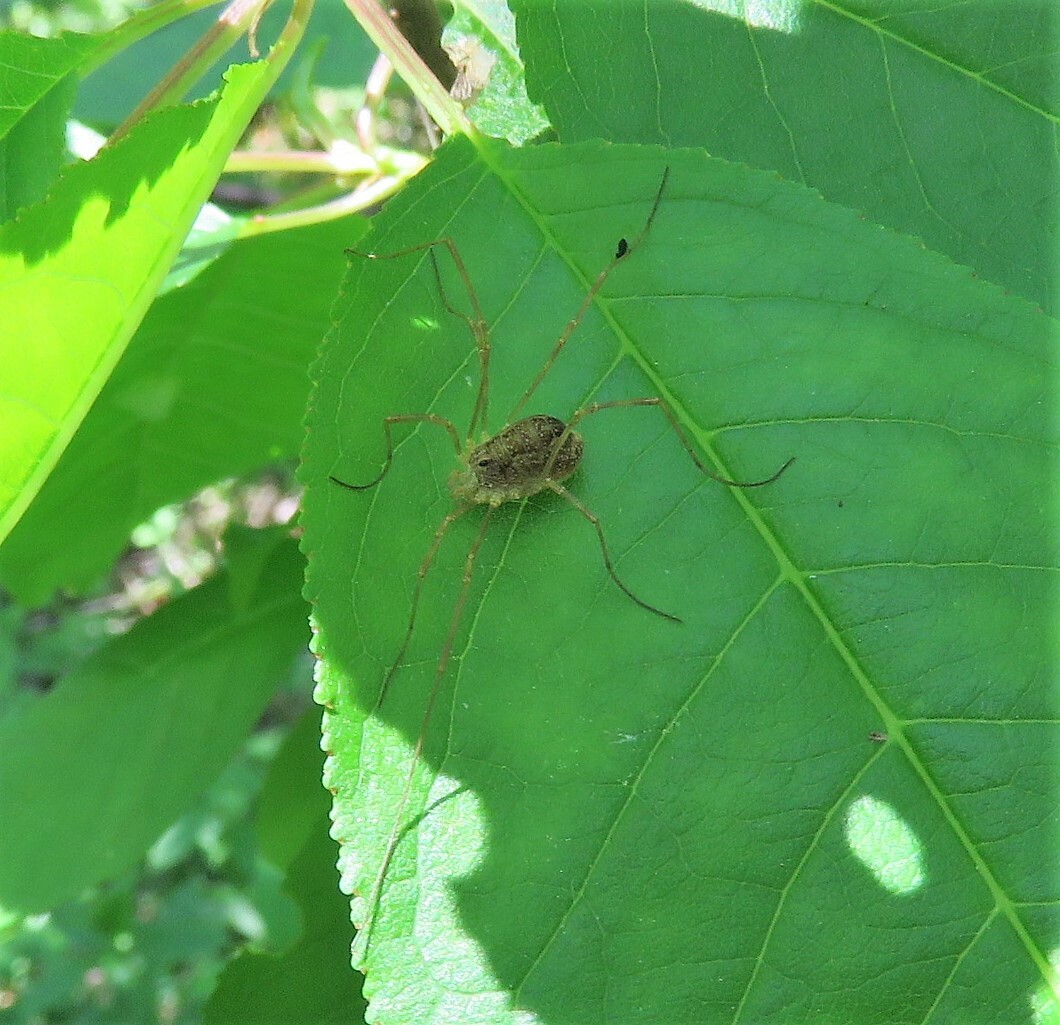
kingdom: Animalia
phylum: Arthropoda
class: Arachnida
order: Opiliones
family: Phalangiidae
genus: Rilaena
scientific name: Rilaena triangularis
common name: Spring harvestman
